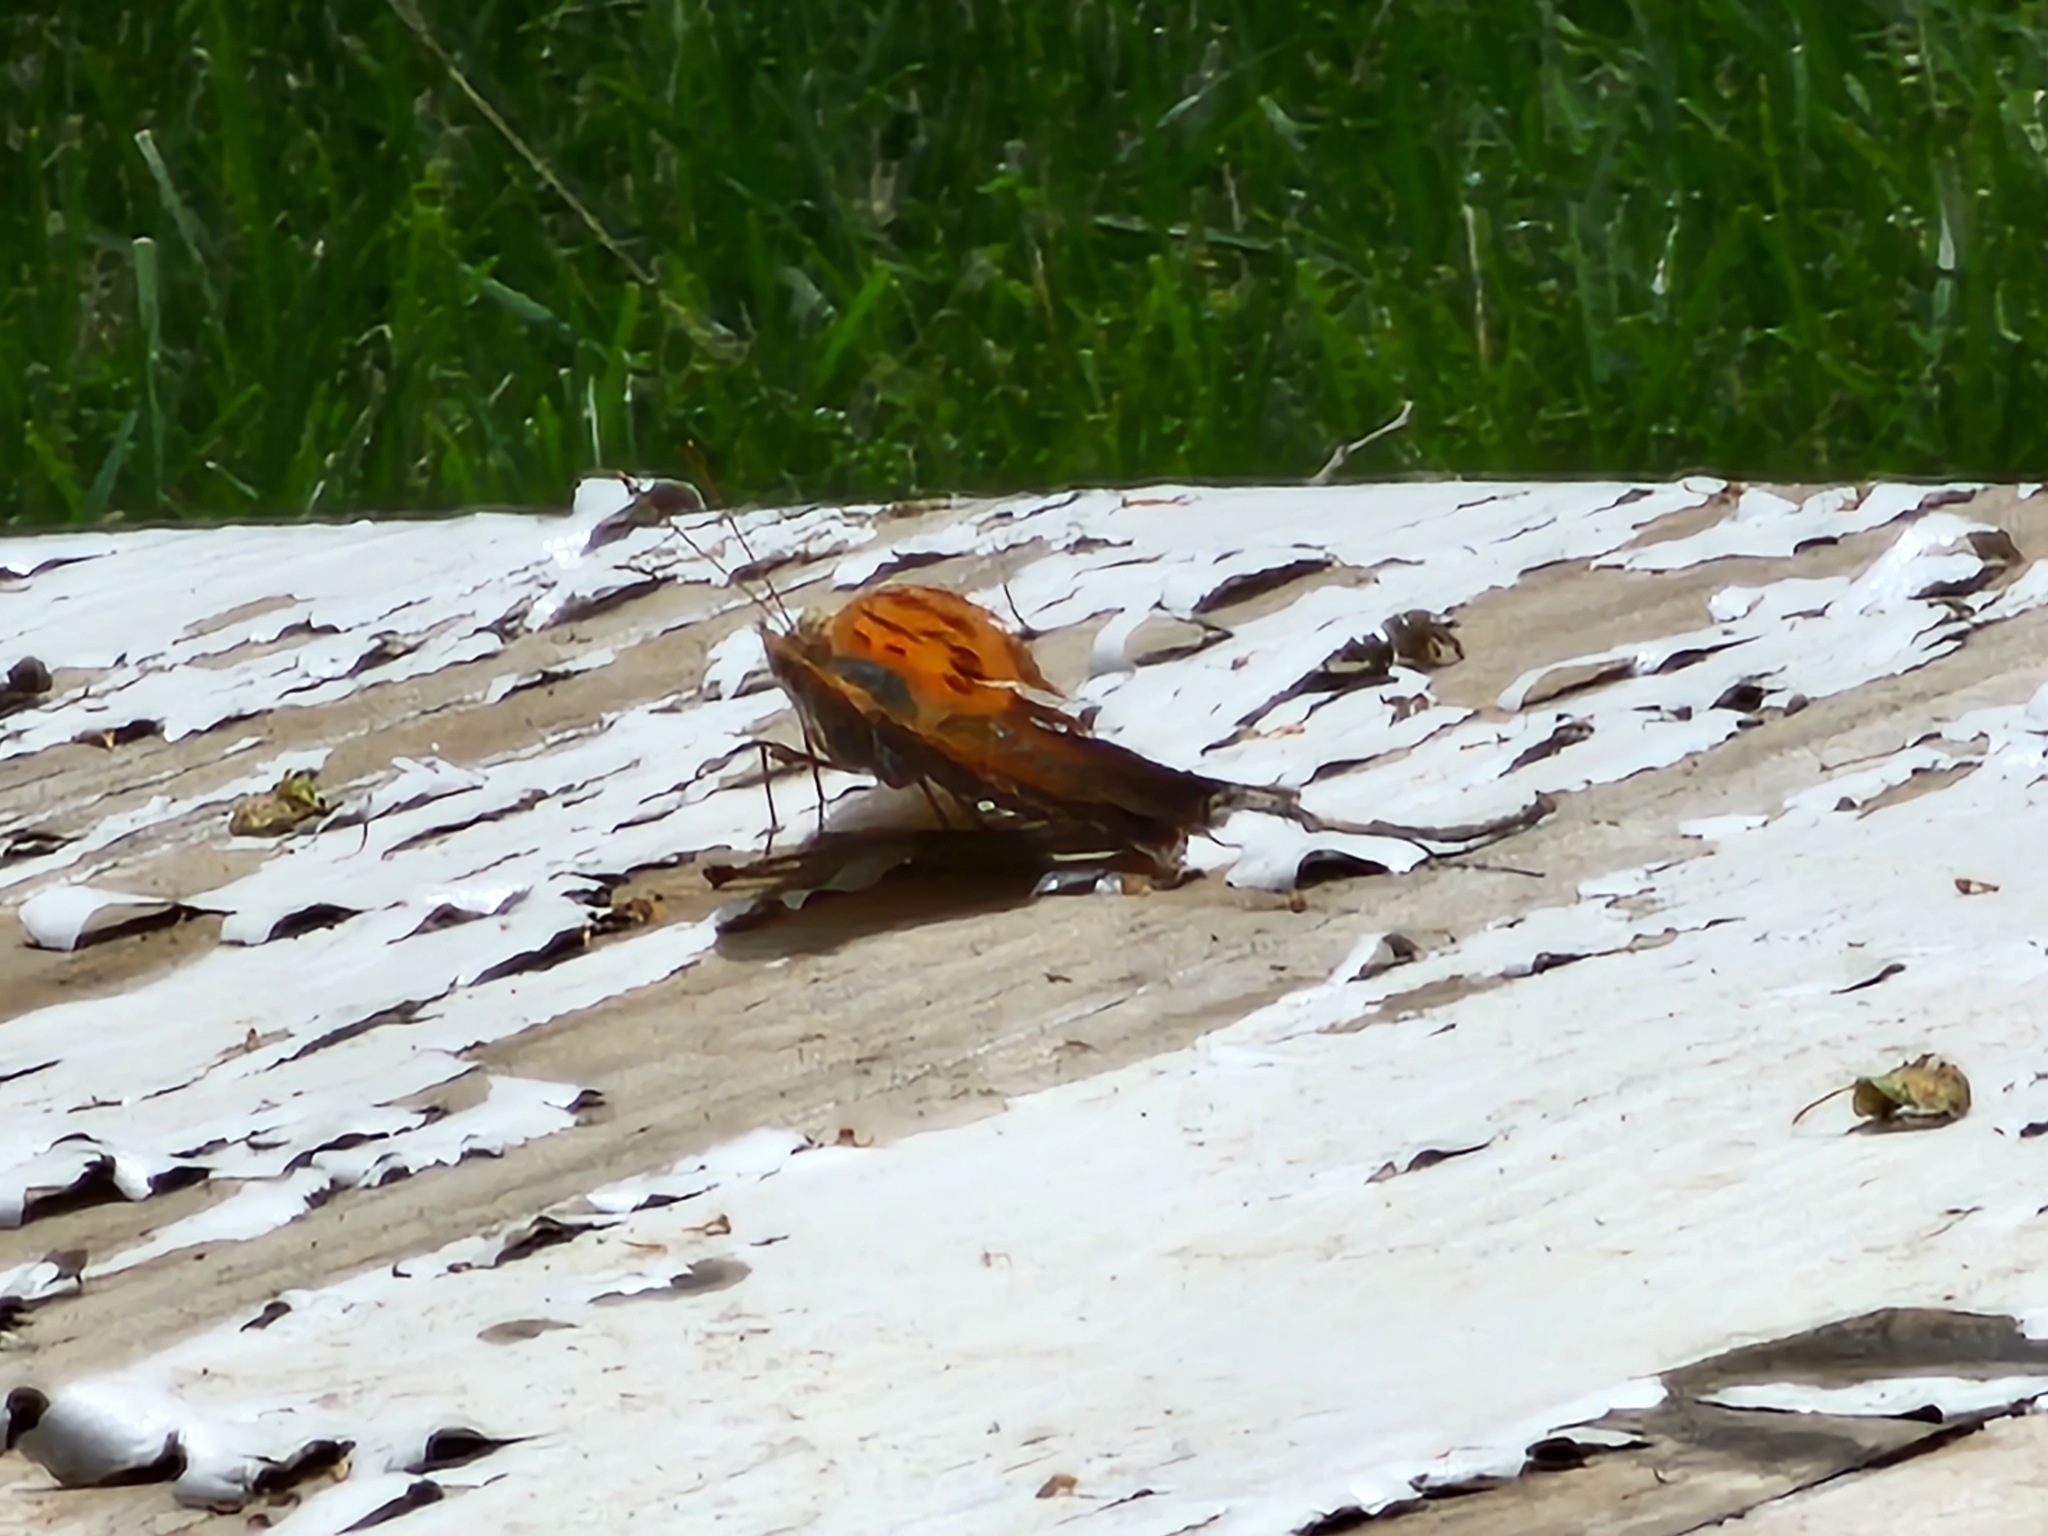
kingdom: Animalia
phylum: Arthropoda
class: Insecta
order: Lepidoptera
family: Nymphalidae
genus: Polygonia
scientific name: Polygonia interrogationis
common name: Question mark
